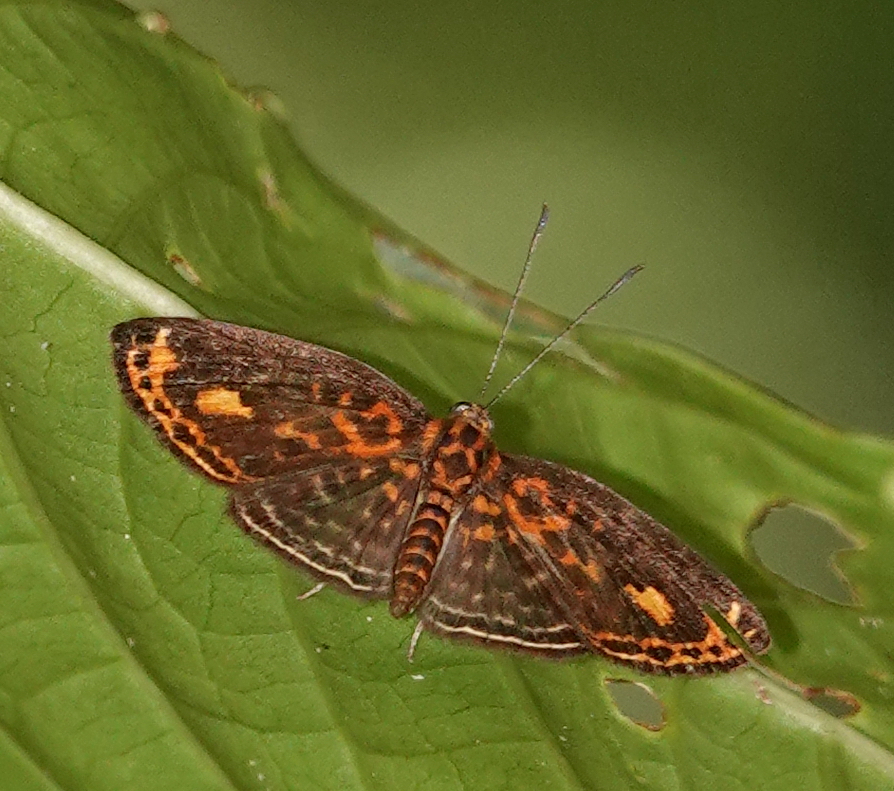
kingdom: Animalia
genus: Symmachia
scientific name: Symmachia batesi
